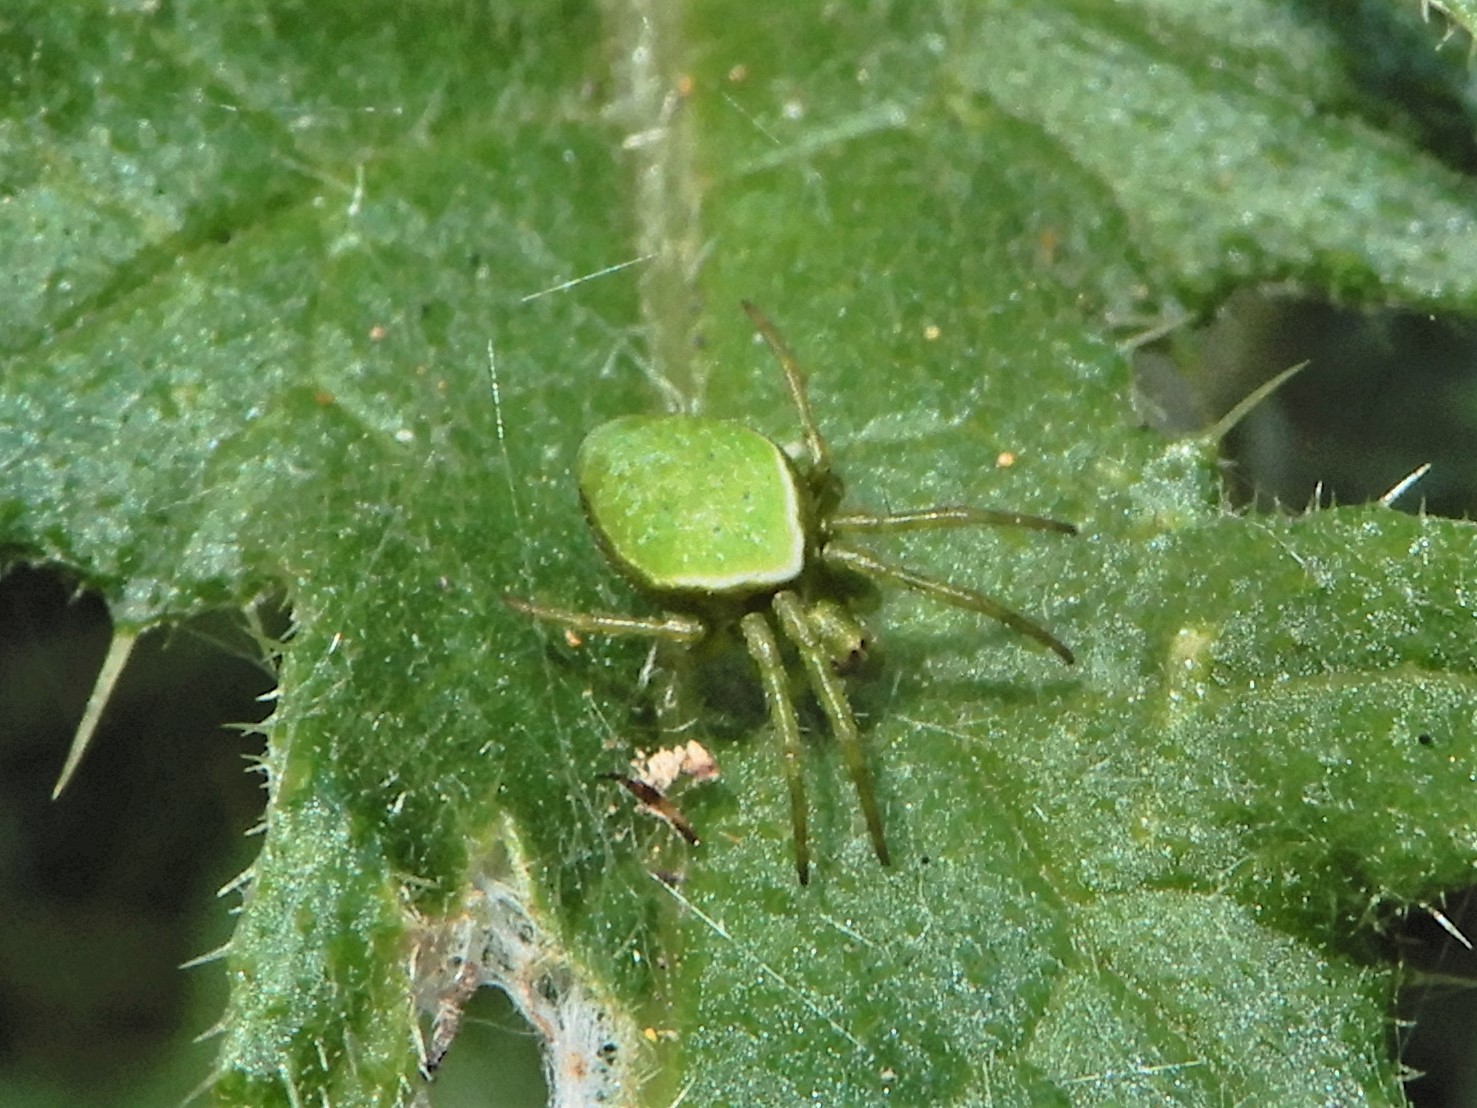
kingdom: Animalia
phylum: Arthropoda
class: Arachnida
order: Araneae
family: Araneidae
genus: Colaranea
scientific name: Colaranea viriditas
